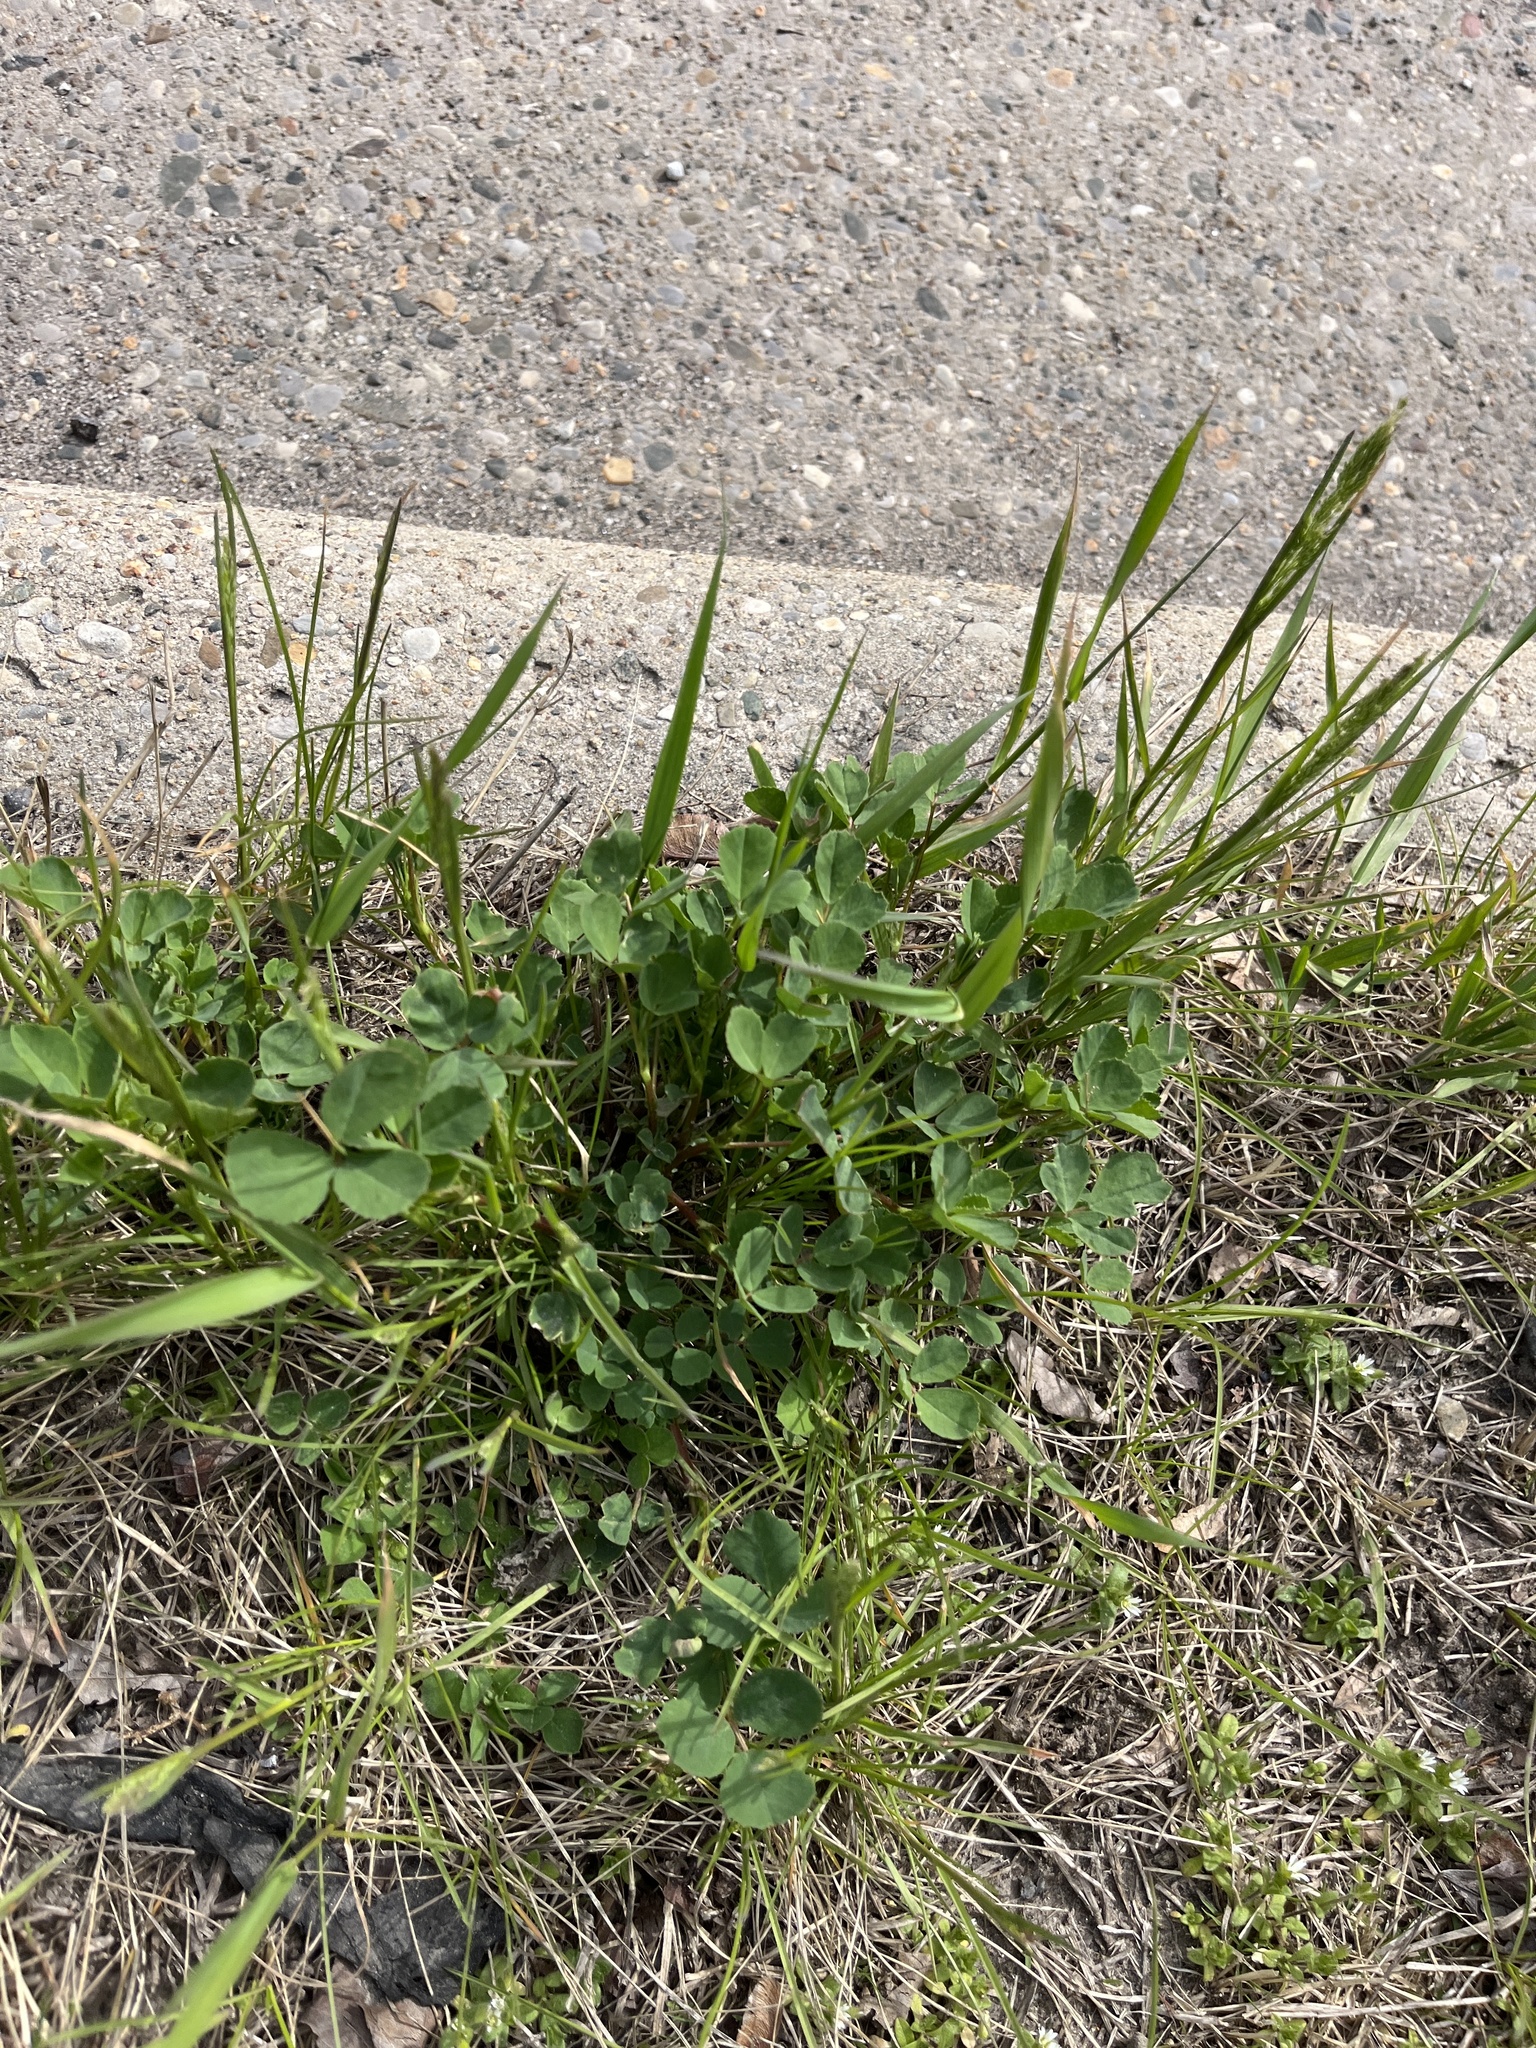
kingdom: Plantae
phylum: Tracheophyta
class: Magnoliopsida
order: Fabales
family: Fabaceae
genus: Trifolium
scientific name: Trifolium repens
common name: White clover
